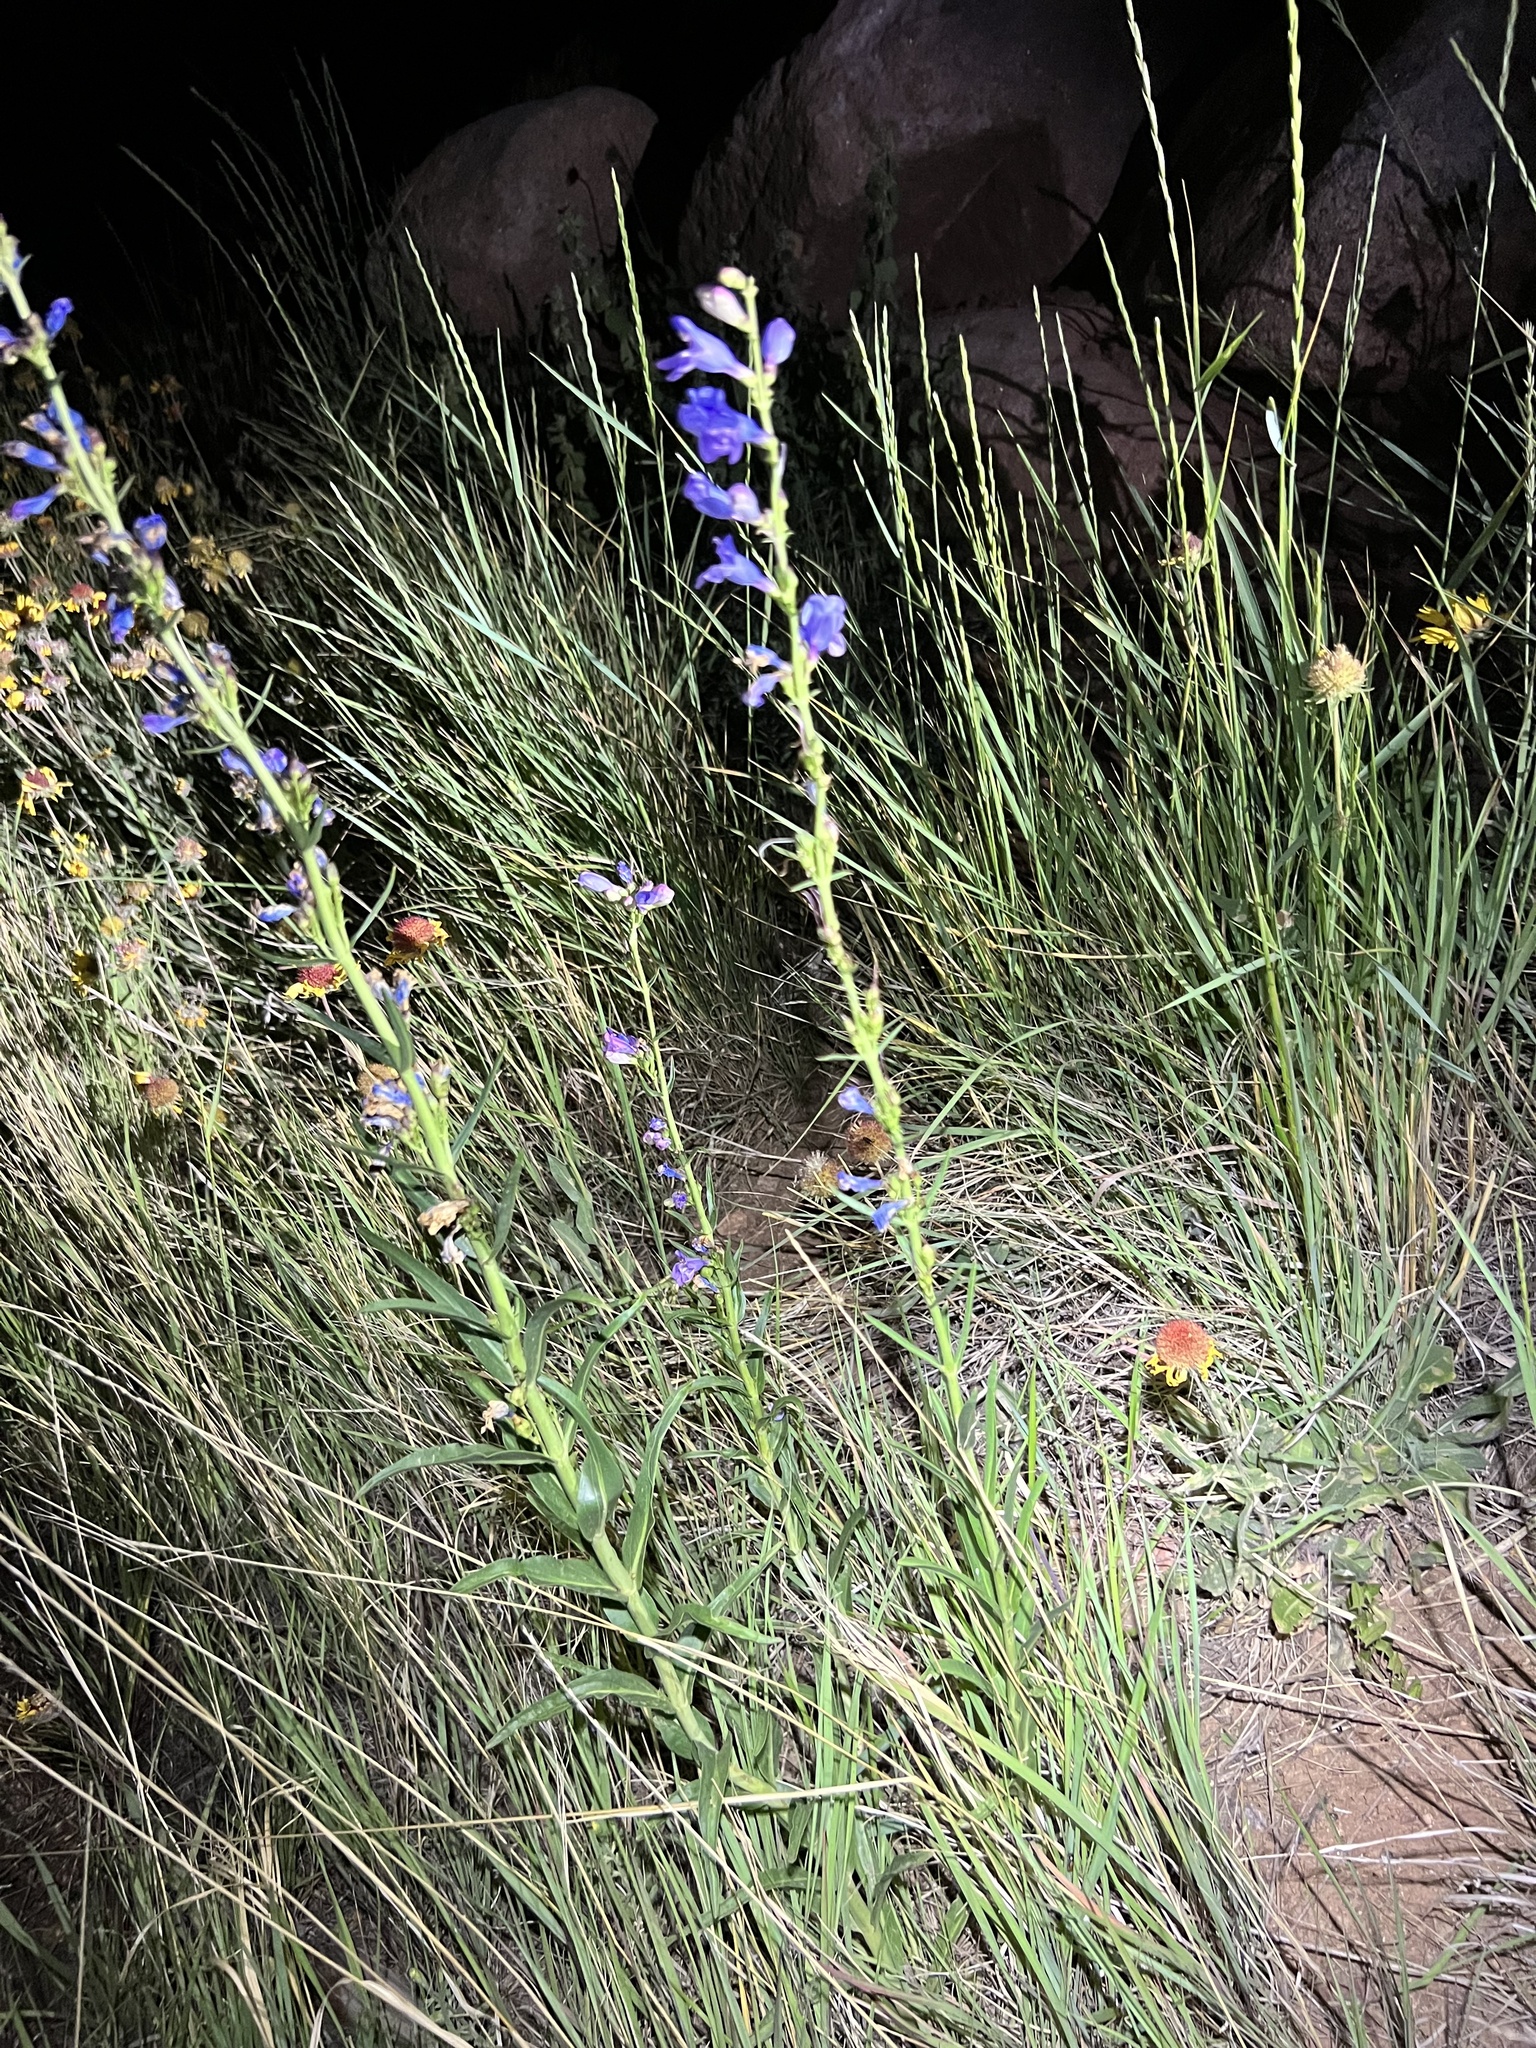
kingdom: Plantae
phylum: Tracheophyta
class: Magnoliopsida
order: Lamiales
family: Plantaginaceae
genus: Penstemon
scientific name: Penstemon virgatus
